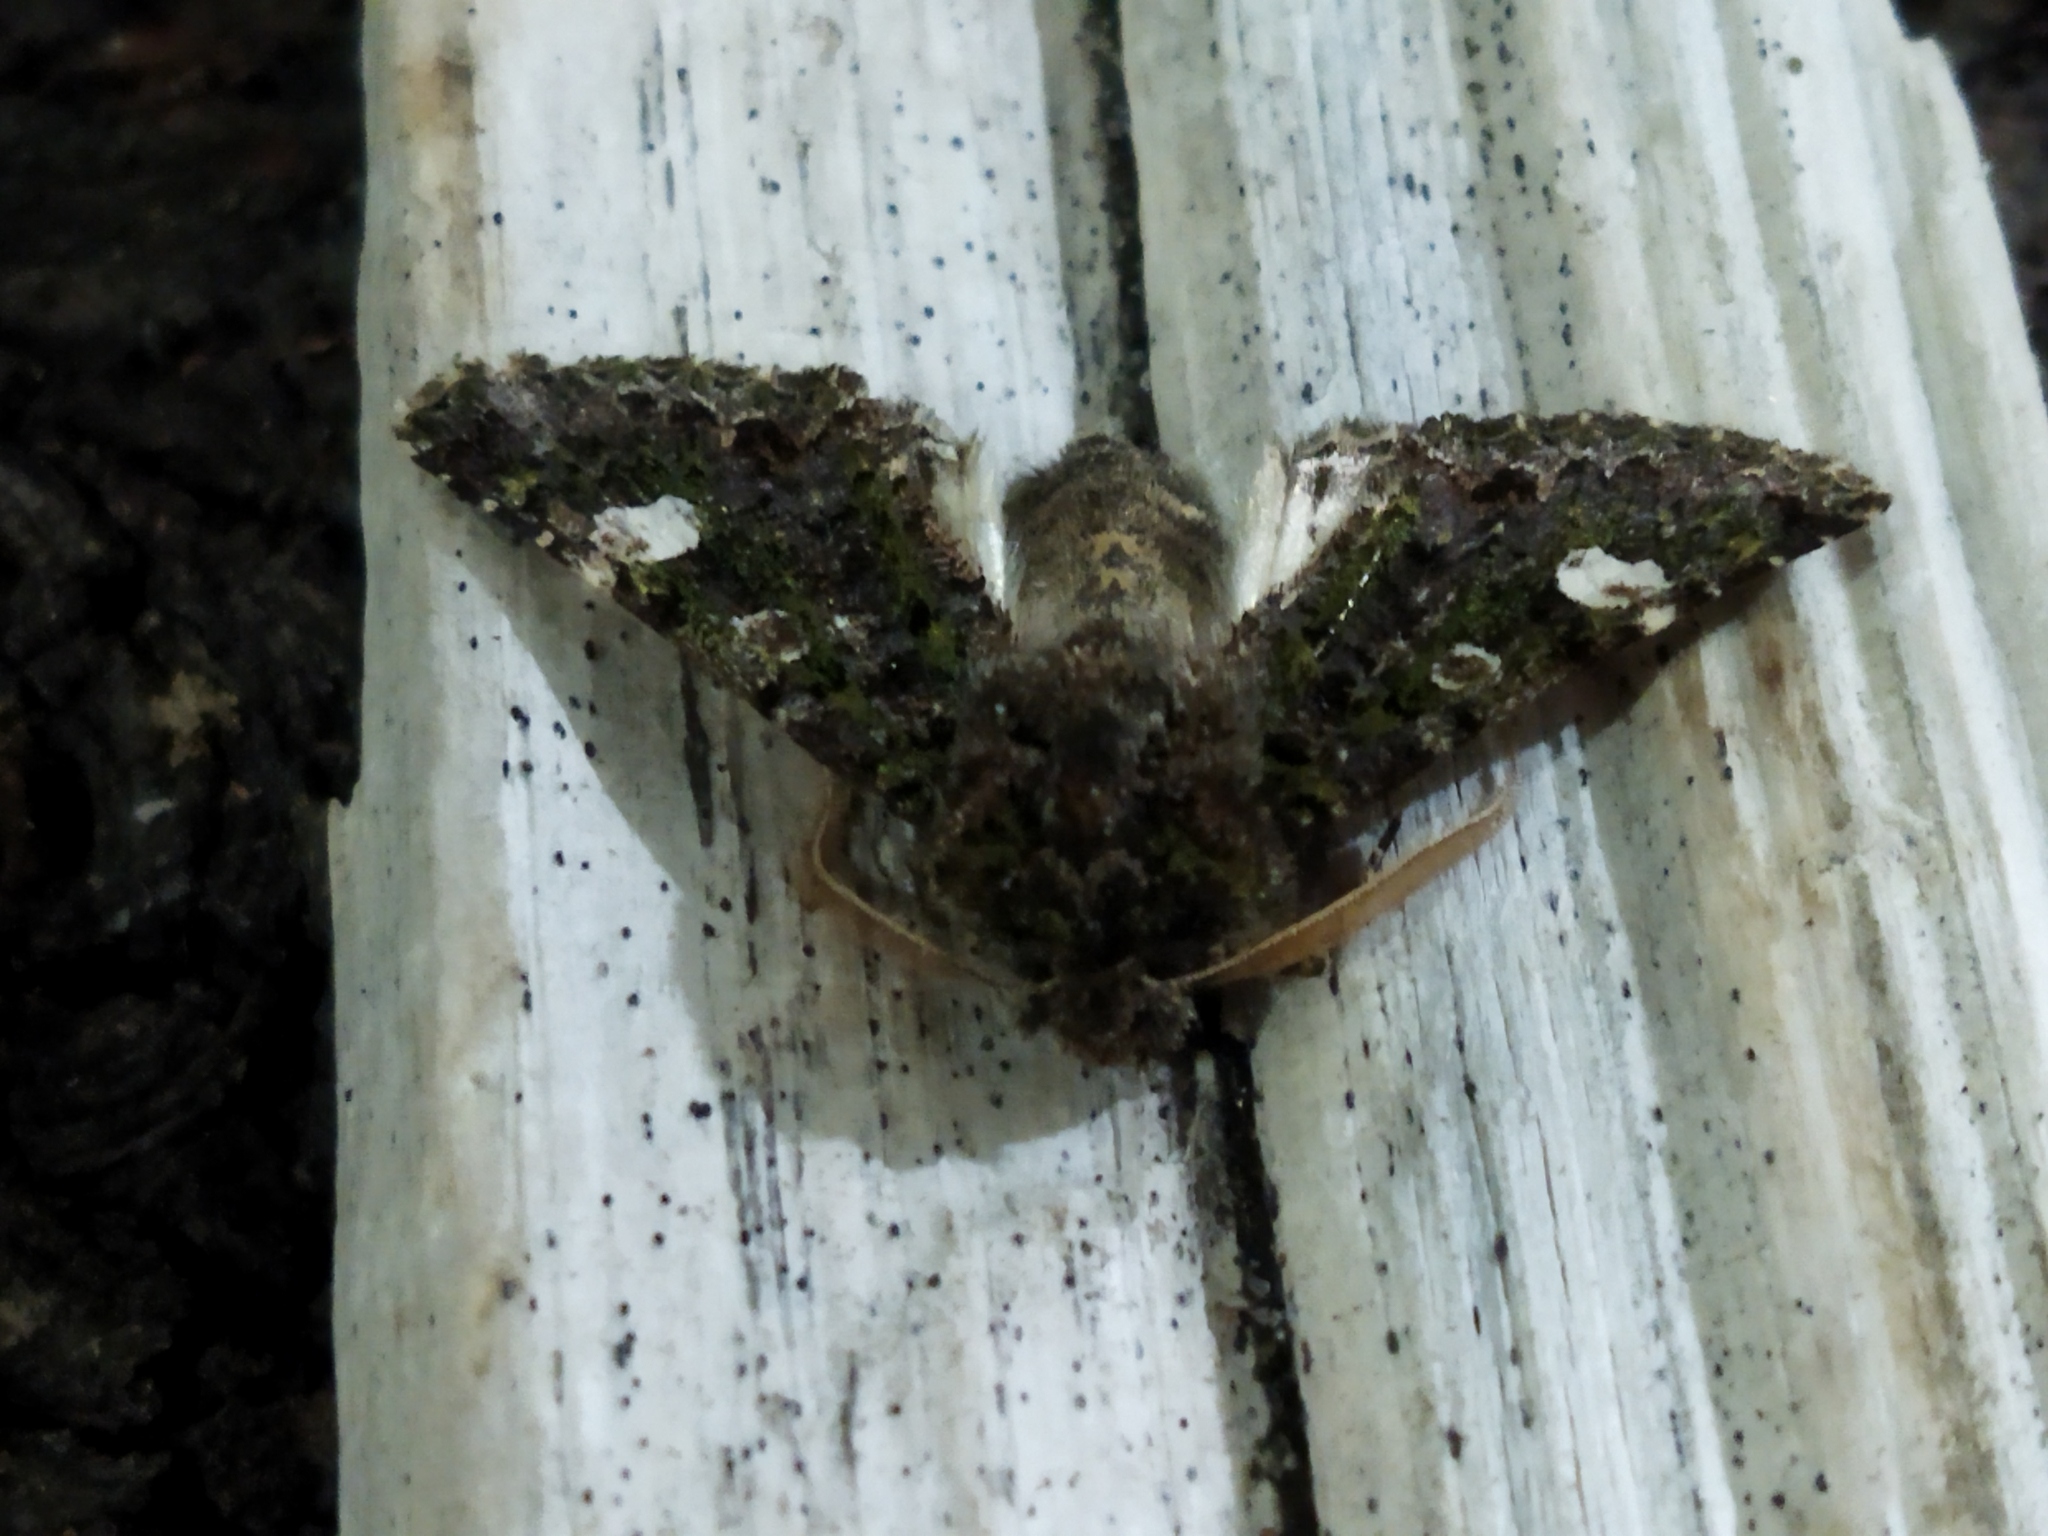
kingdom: Animalia
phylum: Arthropoda
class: Insecta
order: Lepidoptera
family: Noctuidae
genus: Valeria
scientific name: Valeria oleagina
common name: Green-brindled dot
